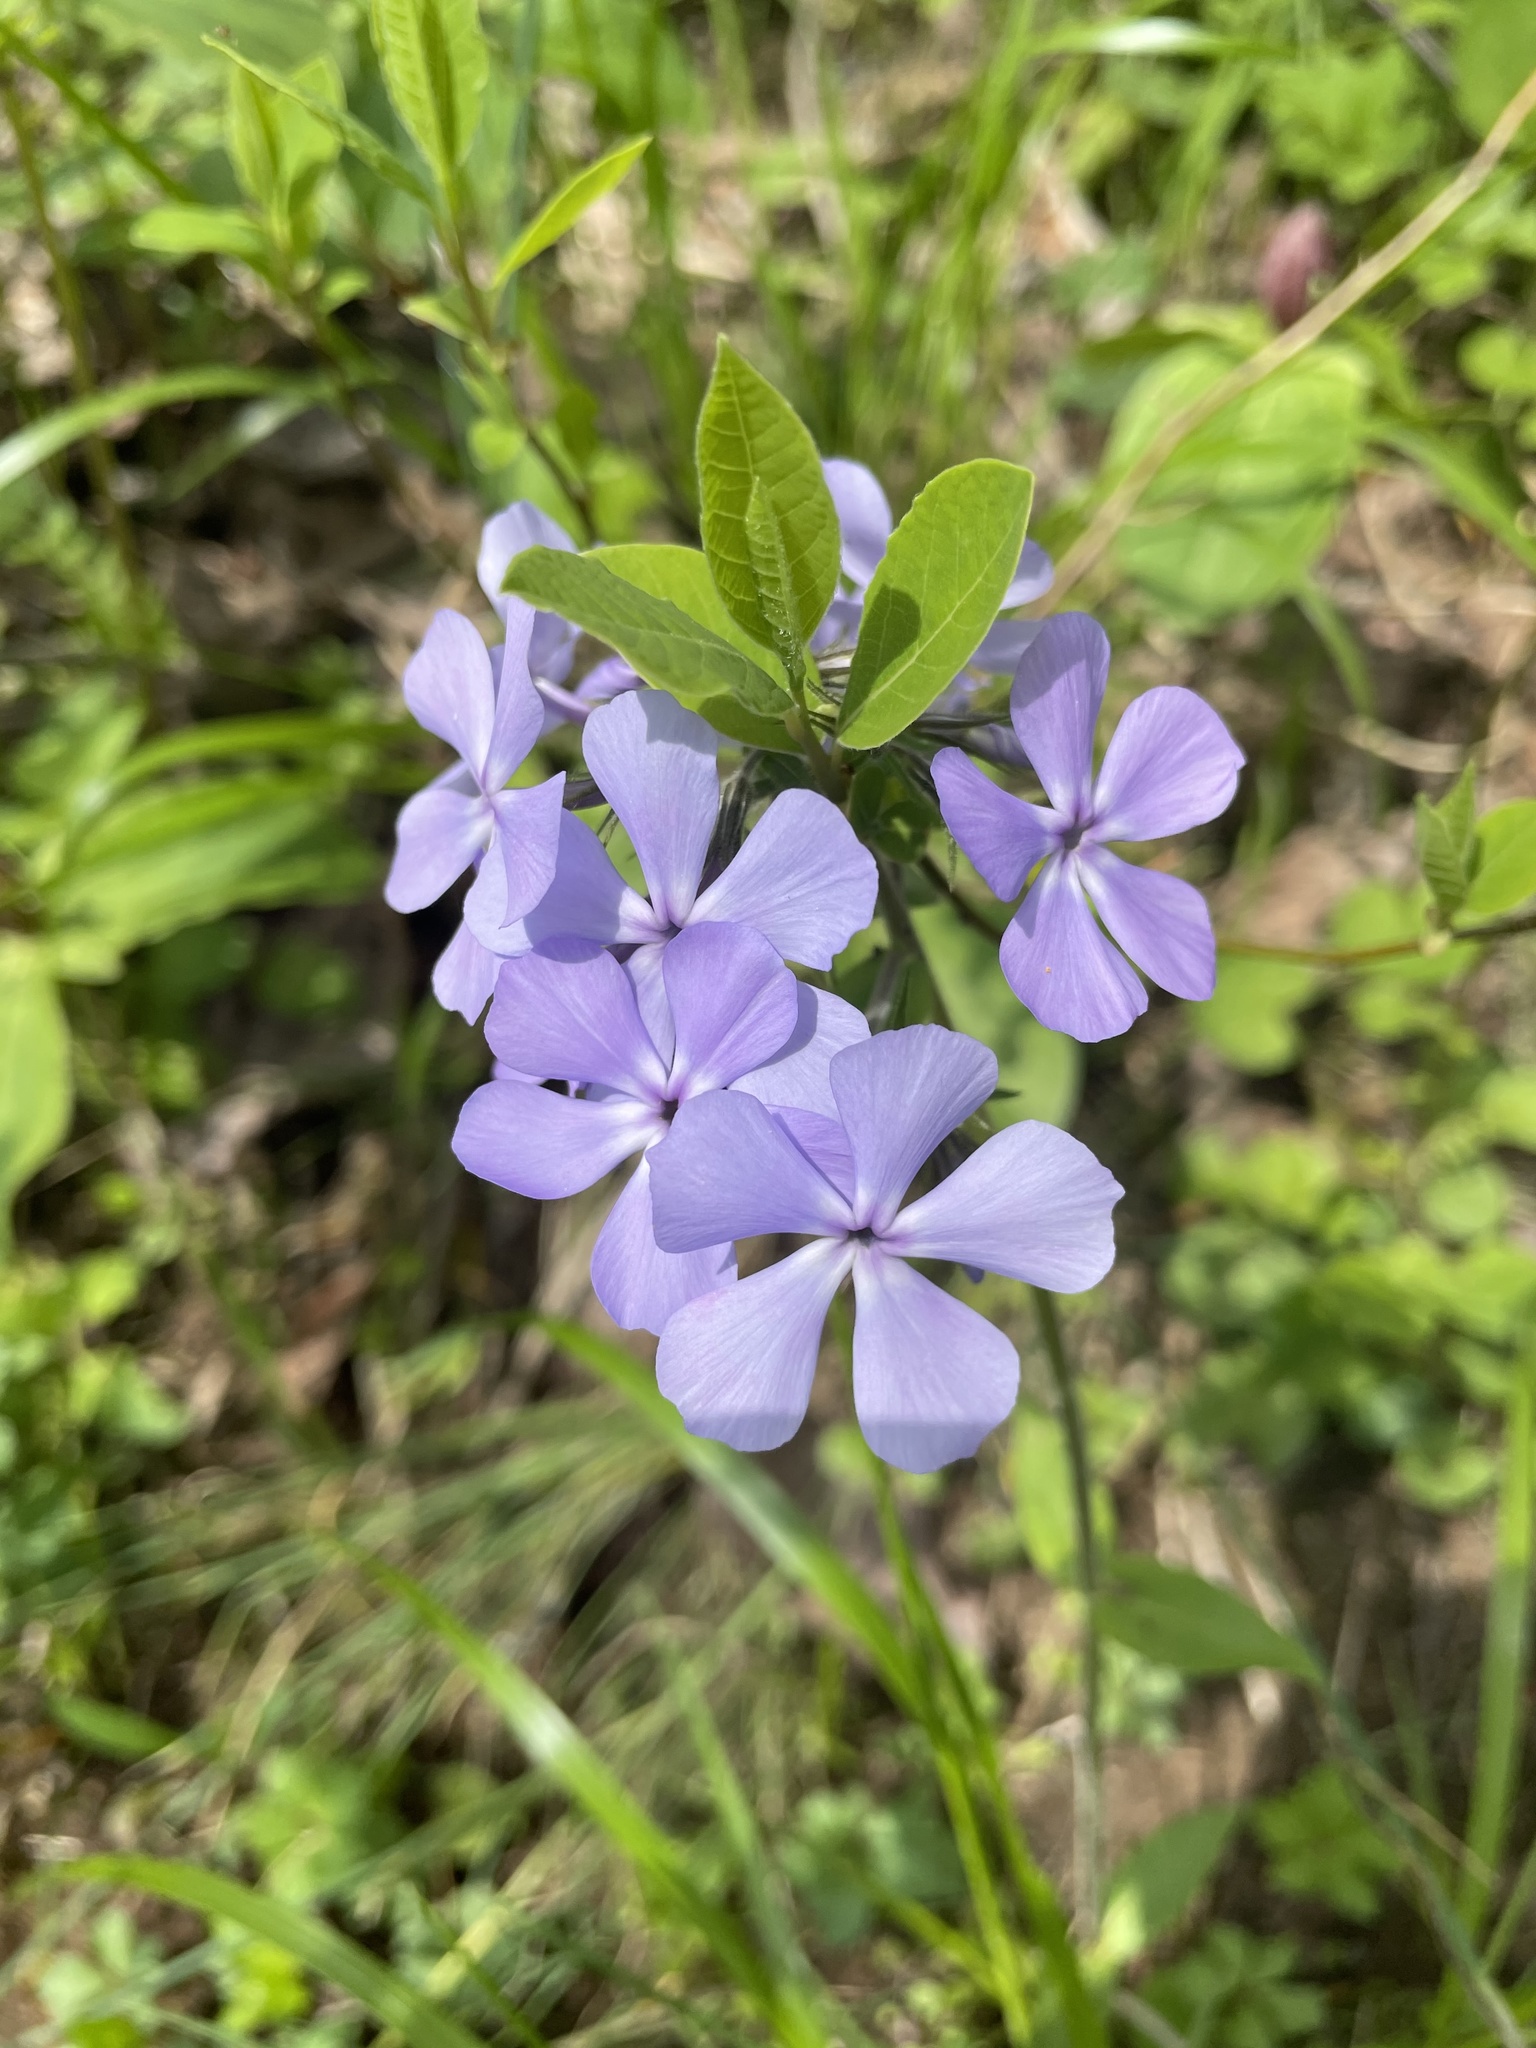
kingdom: Plantae
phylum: Tracheophyta
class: Magnoliopsida
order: Ericales
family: Polemoniaceae
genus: Phlox
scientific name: Phlox divaricata
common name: Blue phlox
